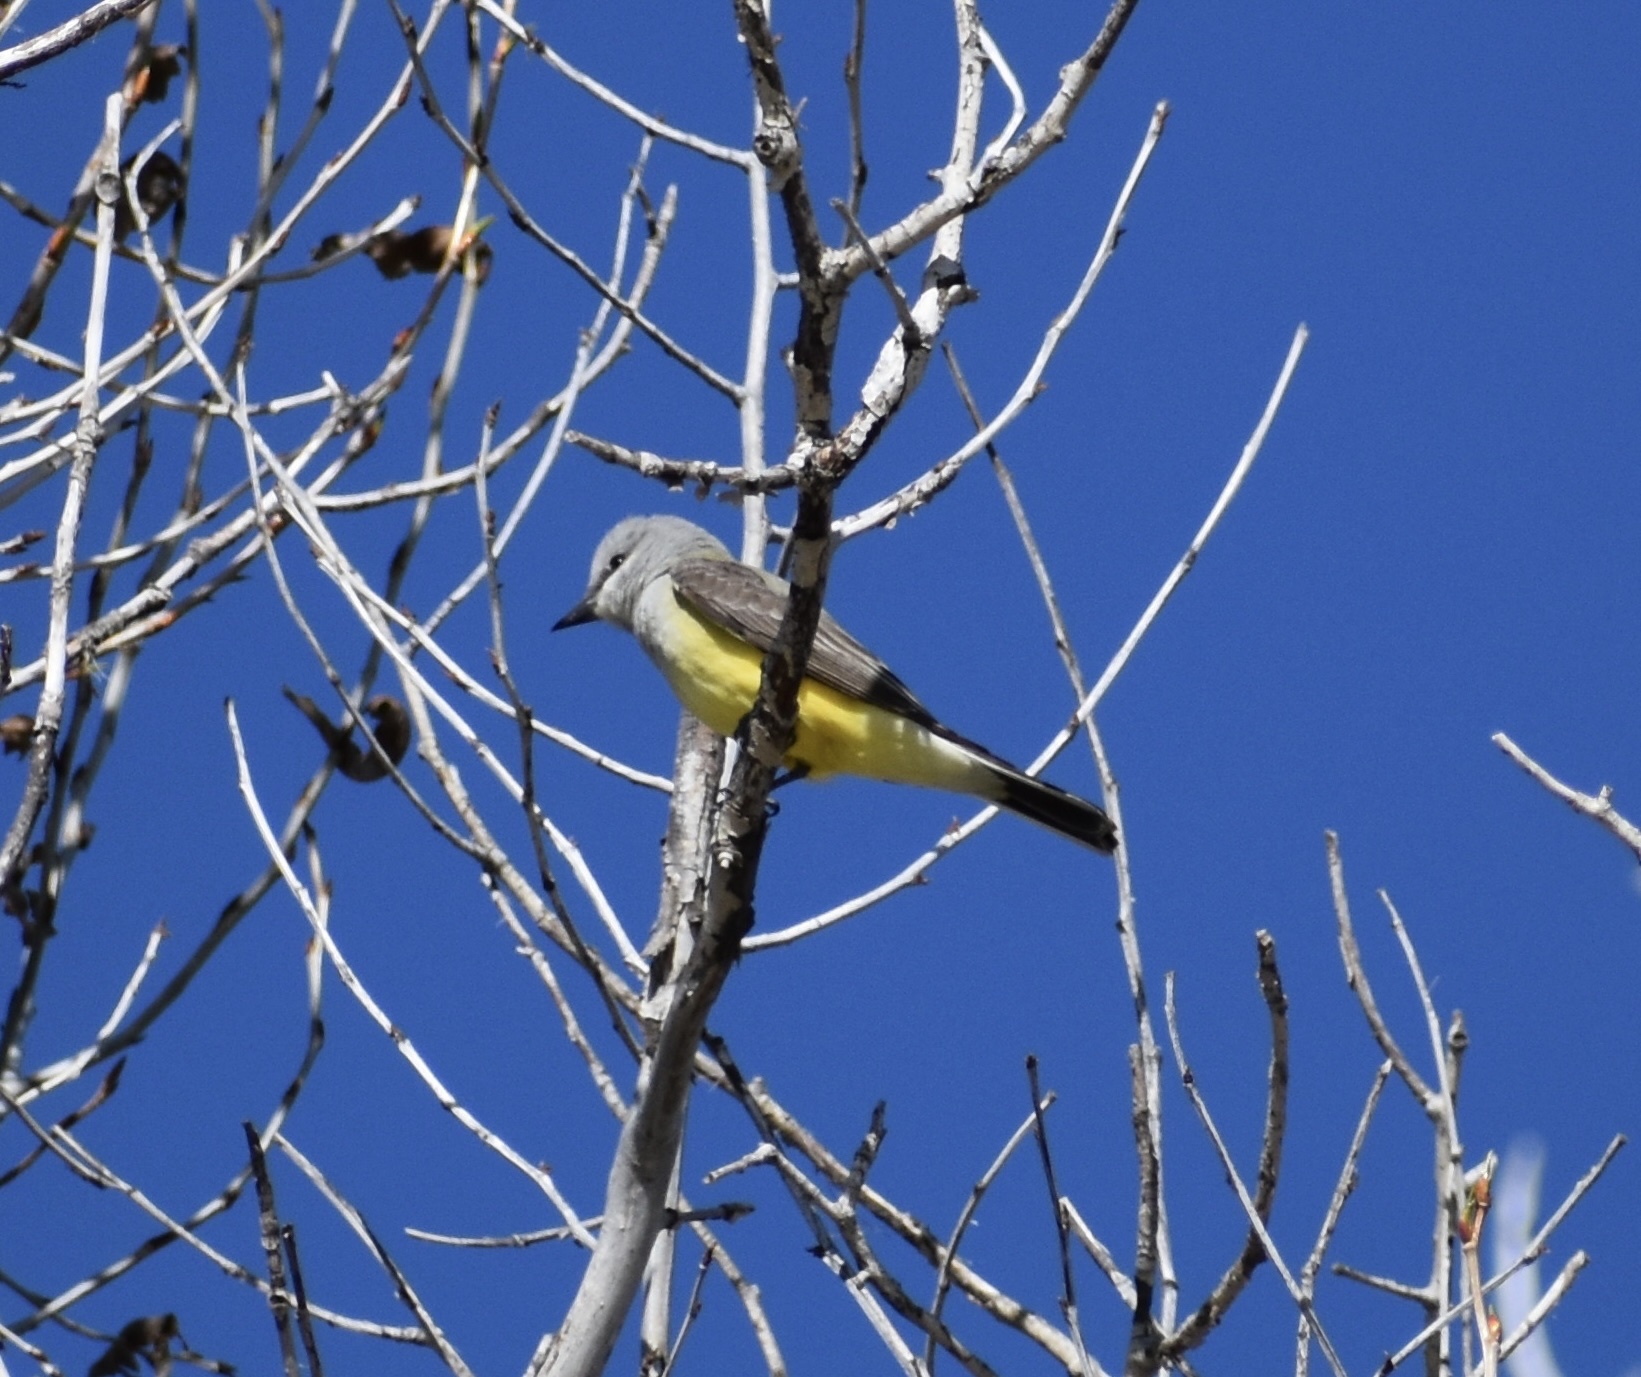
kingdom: Animalia
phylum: Chordata
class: Aves
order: Passeriformes
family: Tyrannidae
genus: Tyrannus
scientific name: Tyrannus verticalis
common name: Western kingbird
